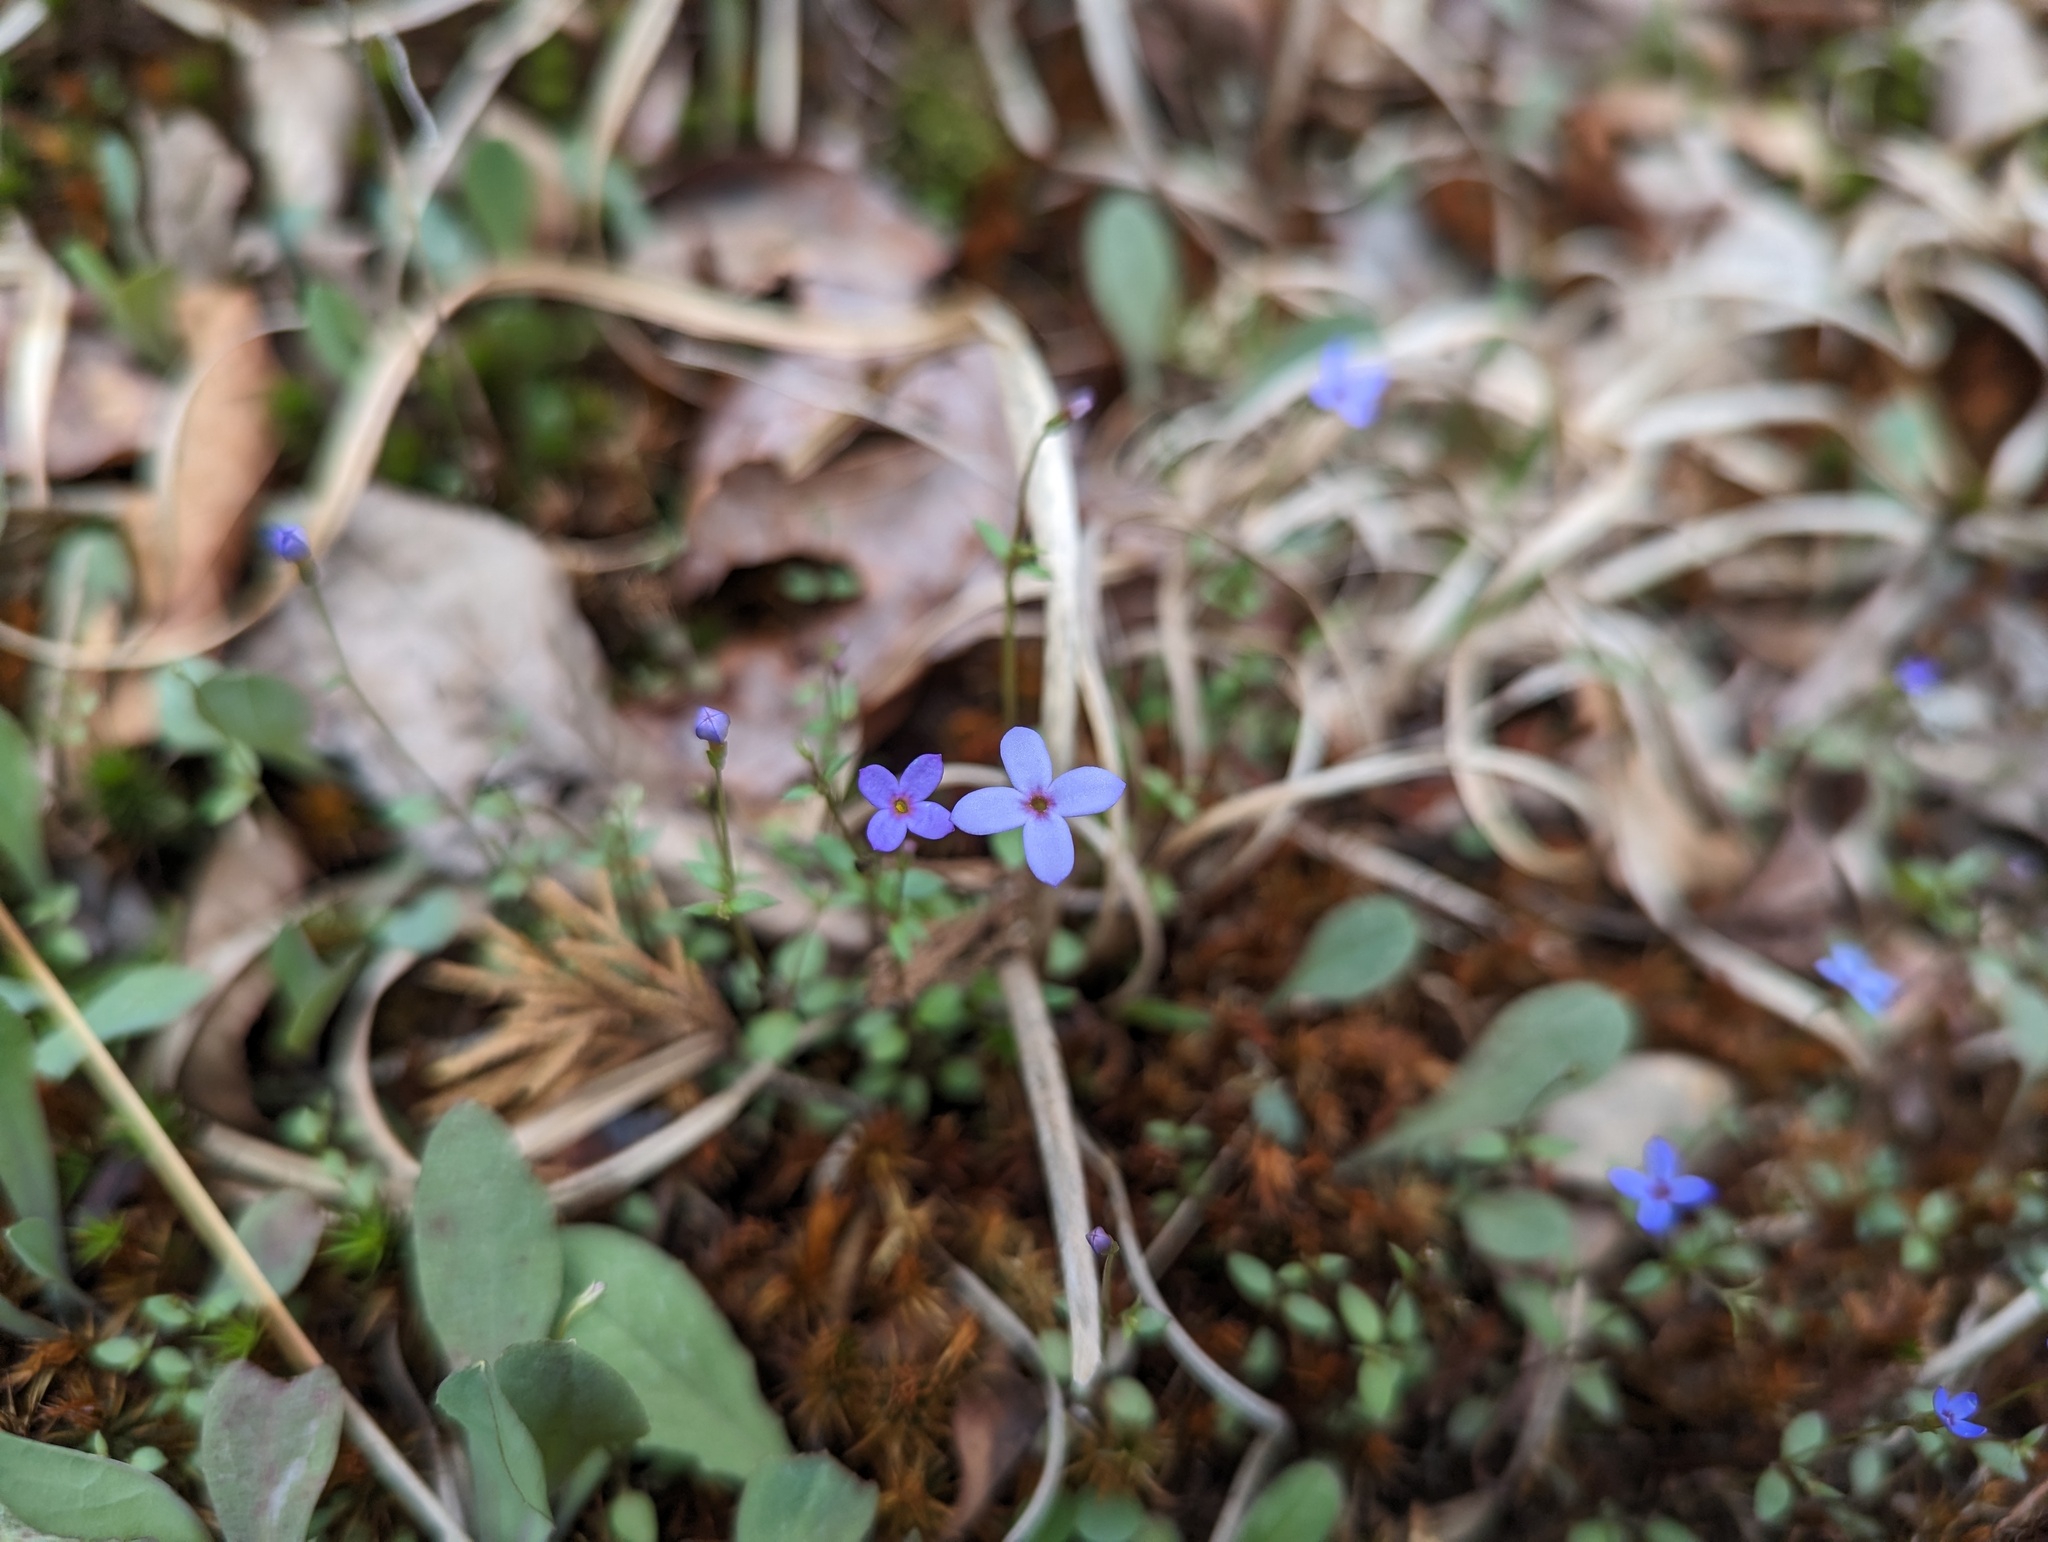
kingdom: Plantae
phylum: Tracheophyta
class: Magnoliopsida
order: Gentianales
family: Rubiaceae
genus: Houstonia
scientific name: Houstonia pusilla
